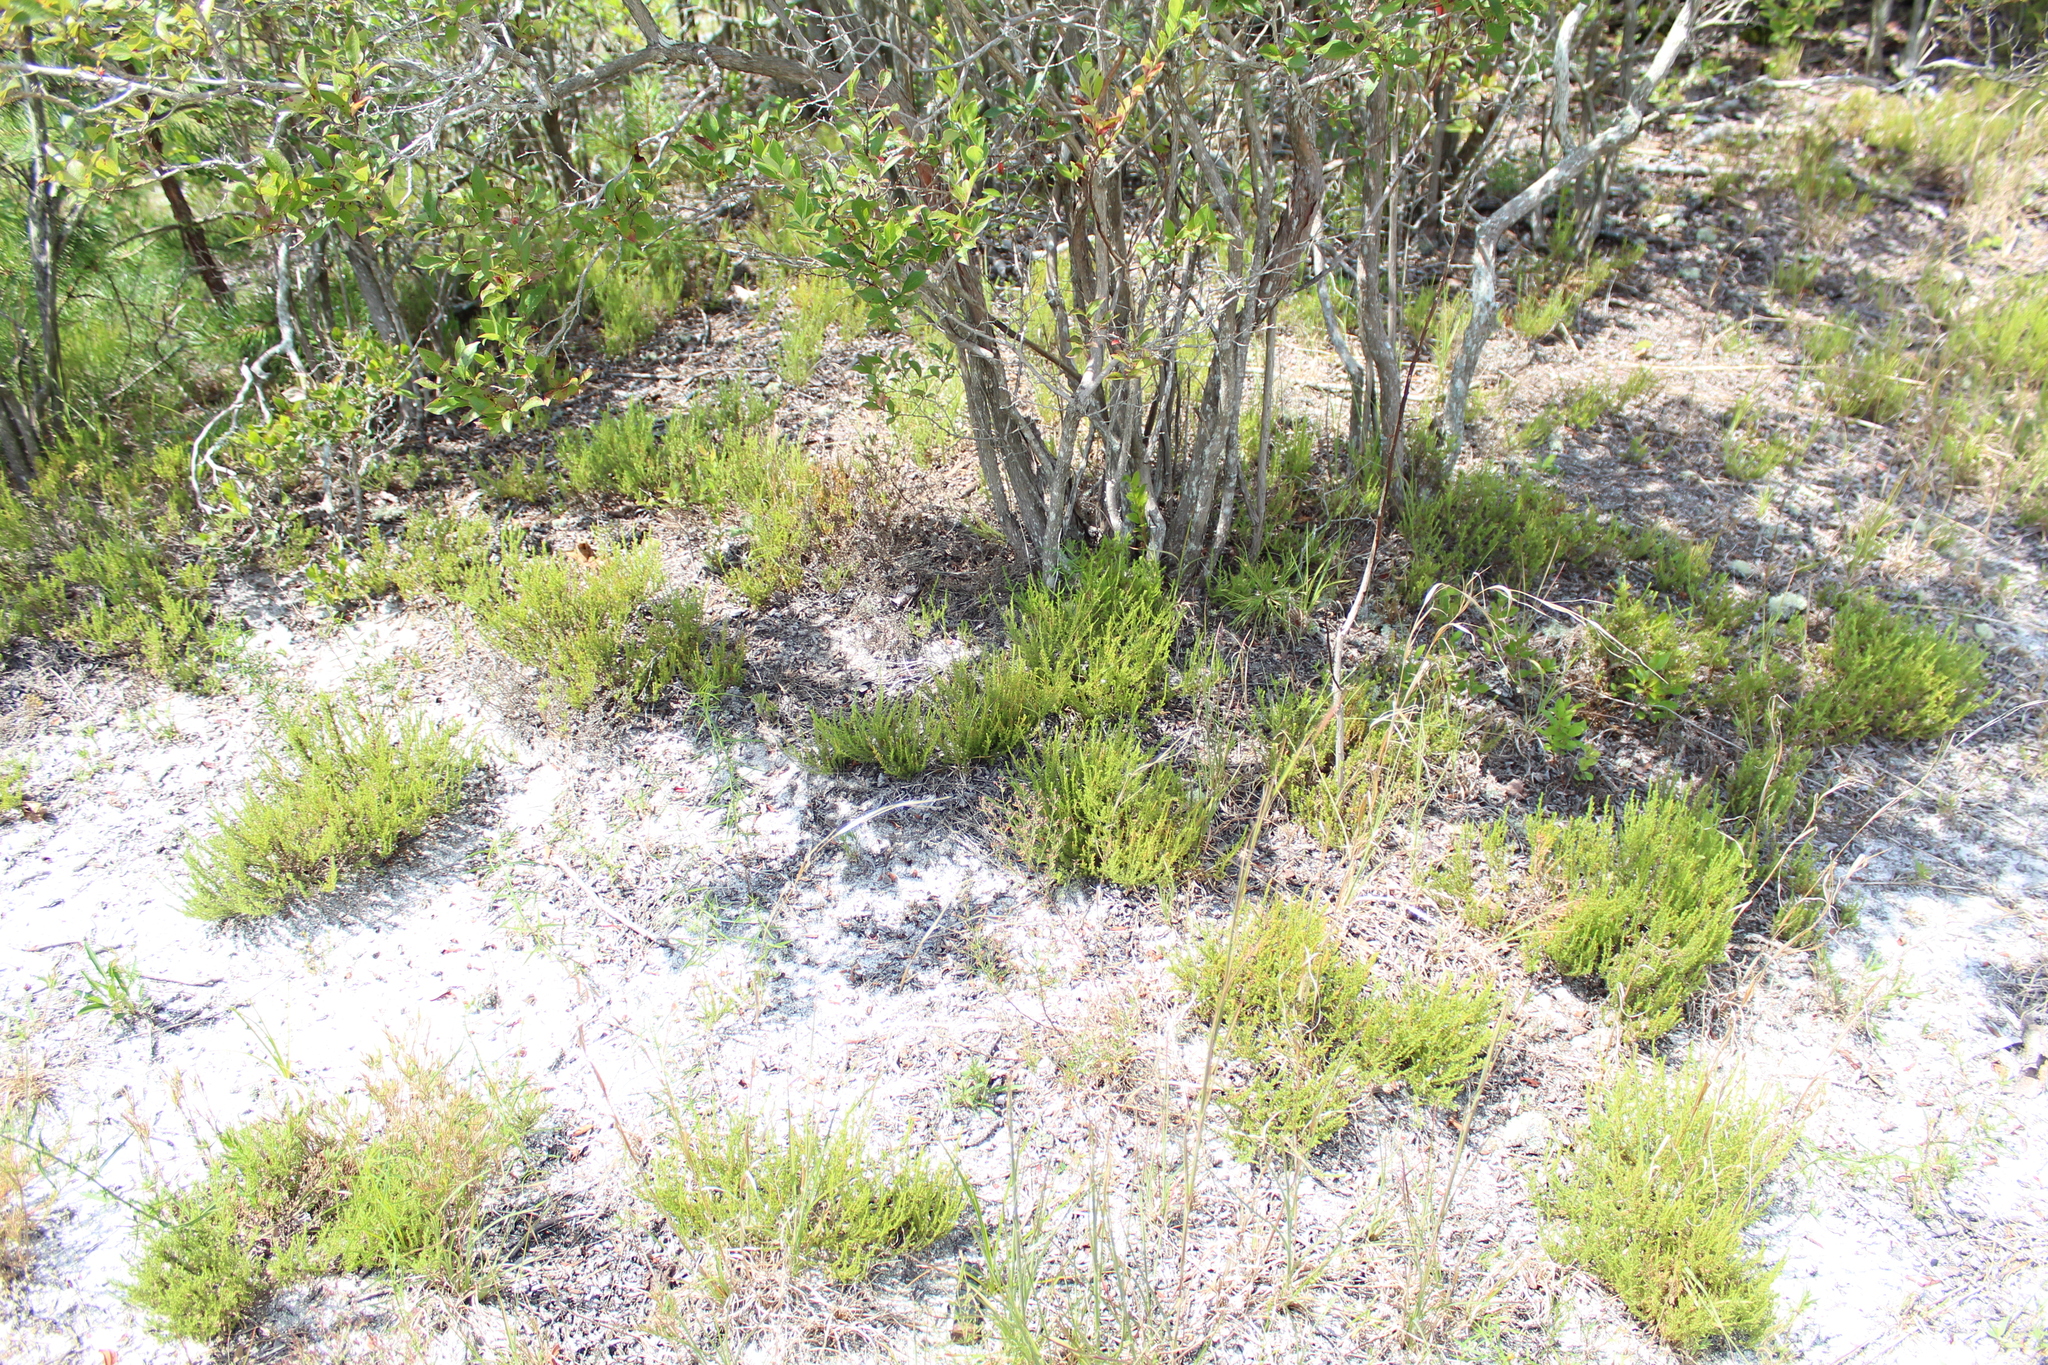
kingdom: Plantae
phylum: Tracheophyta
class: Magnoliopsida
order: Malvales
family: Cistaceae
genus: Hudsonia
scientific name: Hudsonia ericoides
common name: Golden-heather
